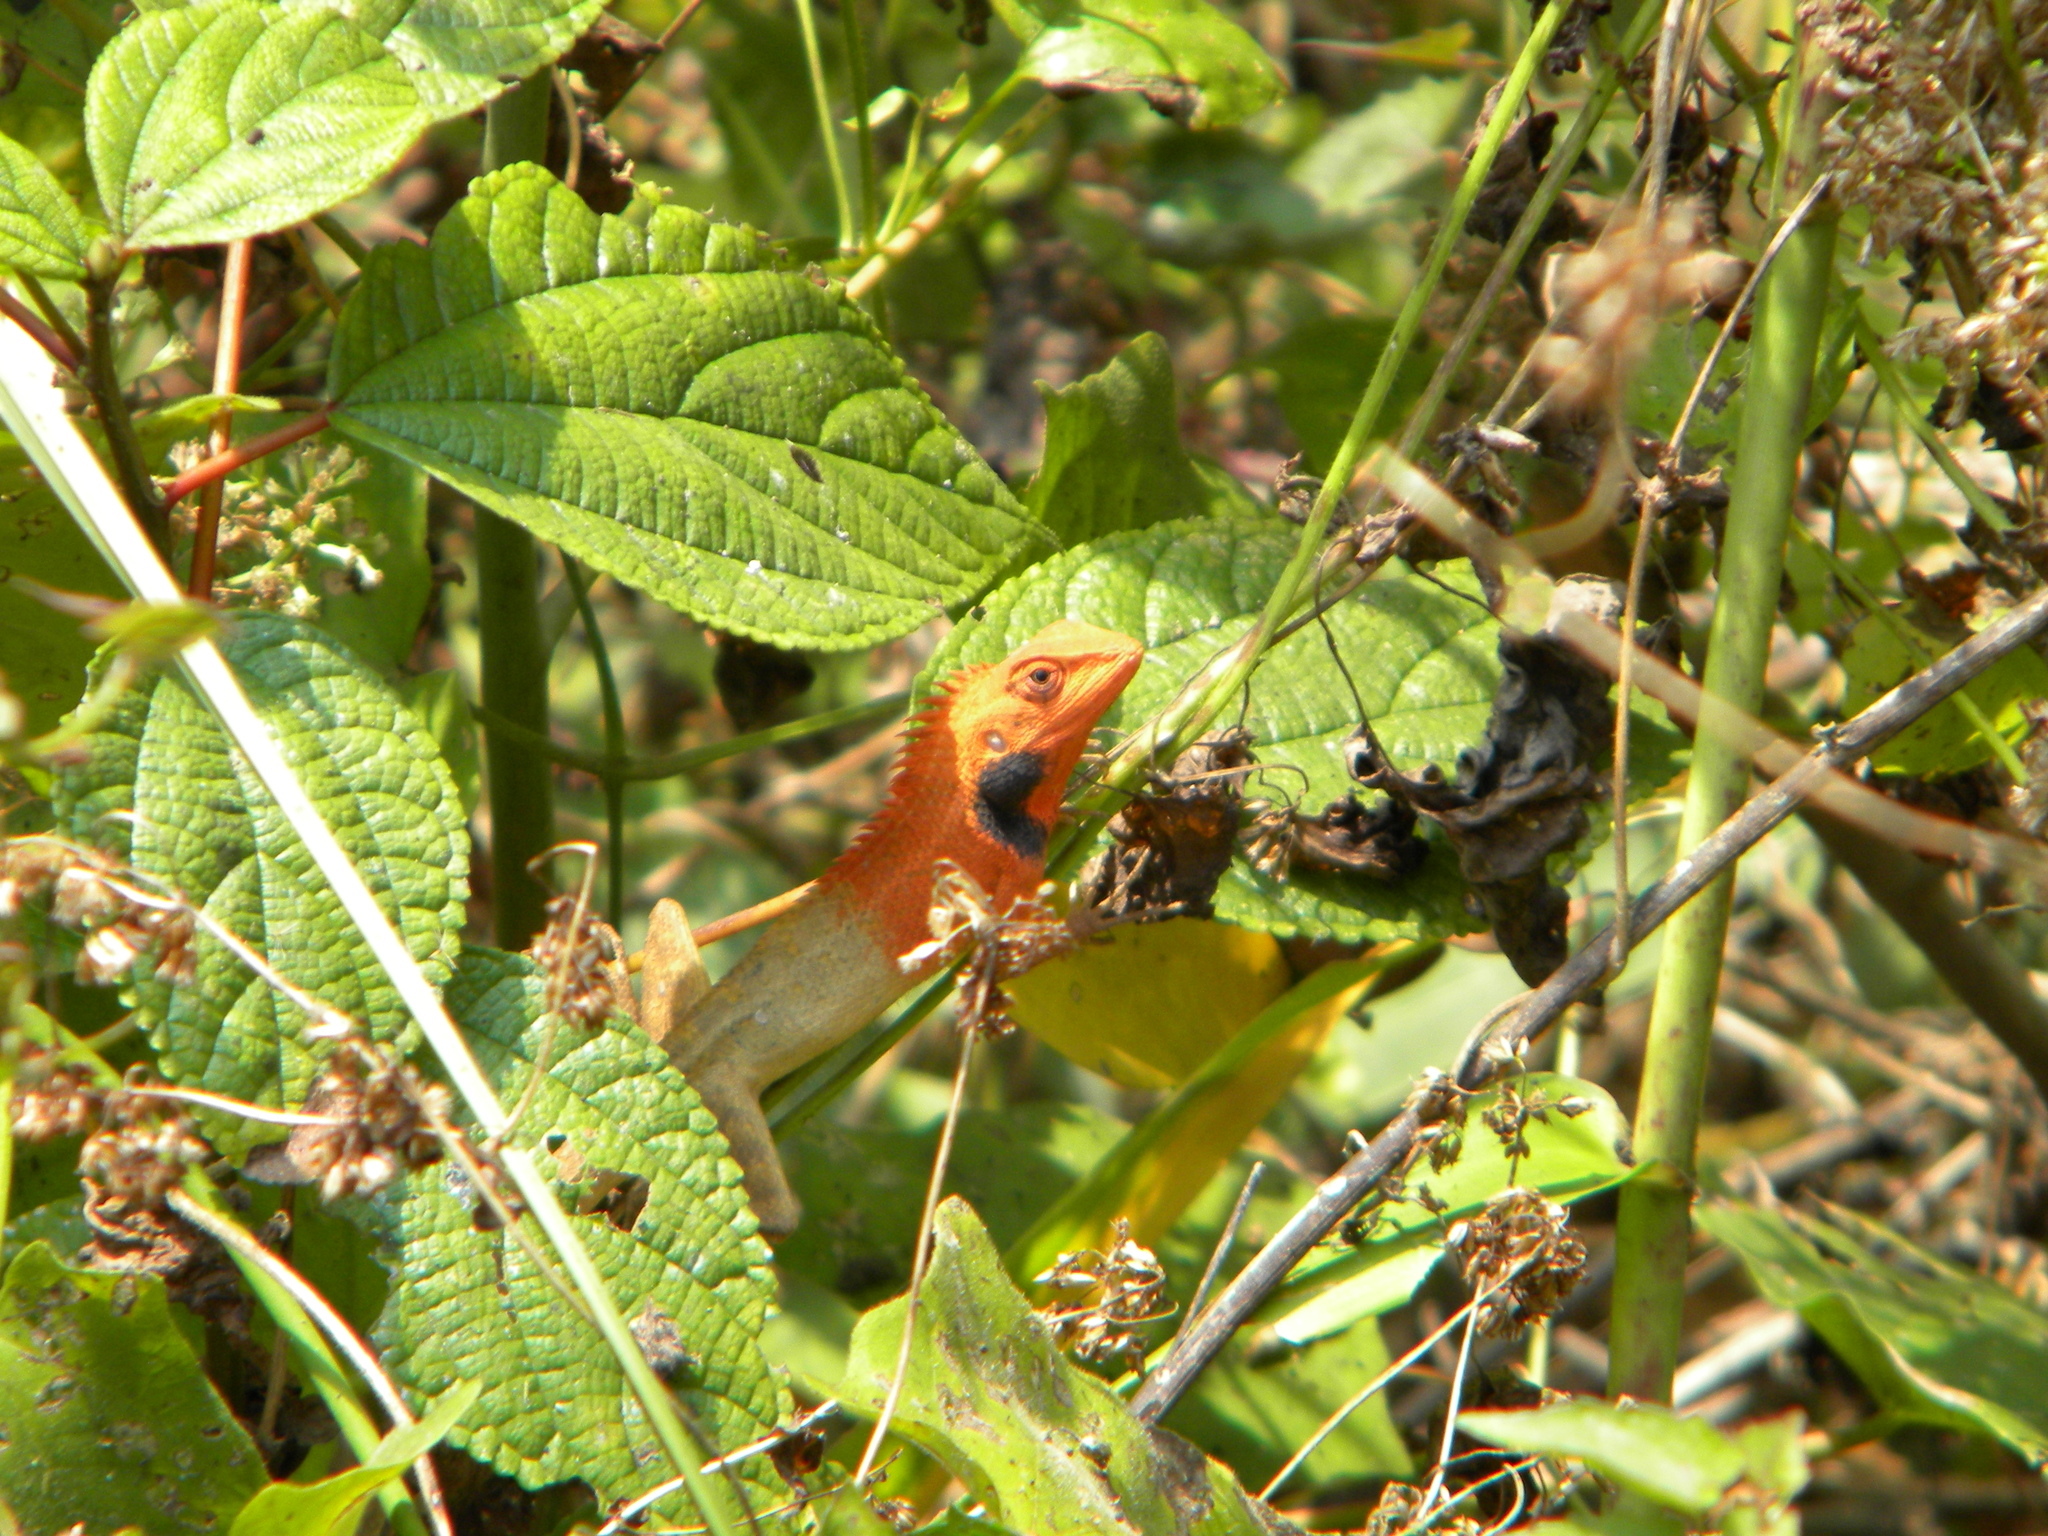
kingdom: Animalia
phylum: Chordata
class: Squamata
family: Agamidae
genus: Calotes
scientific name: Calotes versicolor
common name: Oriental garden lizard
